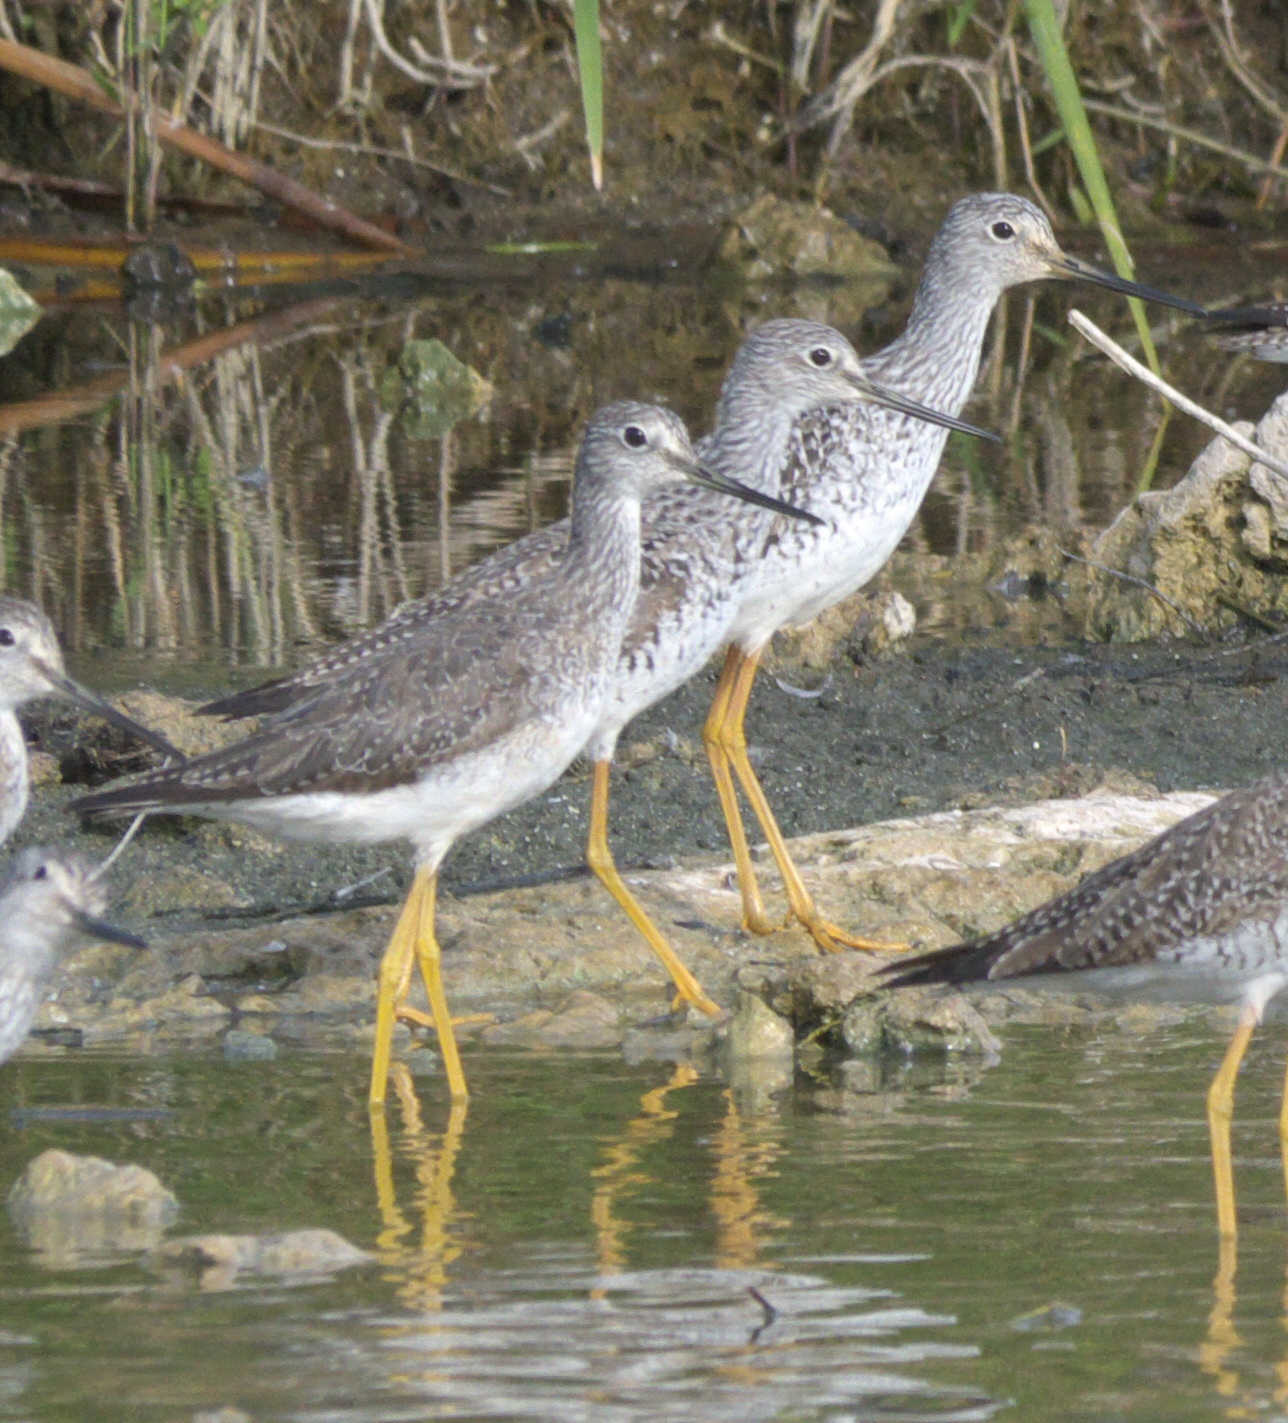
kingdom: Animalia
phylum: Chordata
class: Aves
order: Charadriiformes
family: Scolopacidae
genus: Tringa
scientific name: Tringa melanoleuca
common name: Greater yellowlegs
